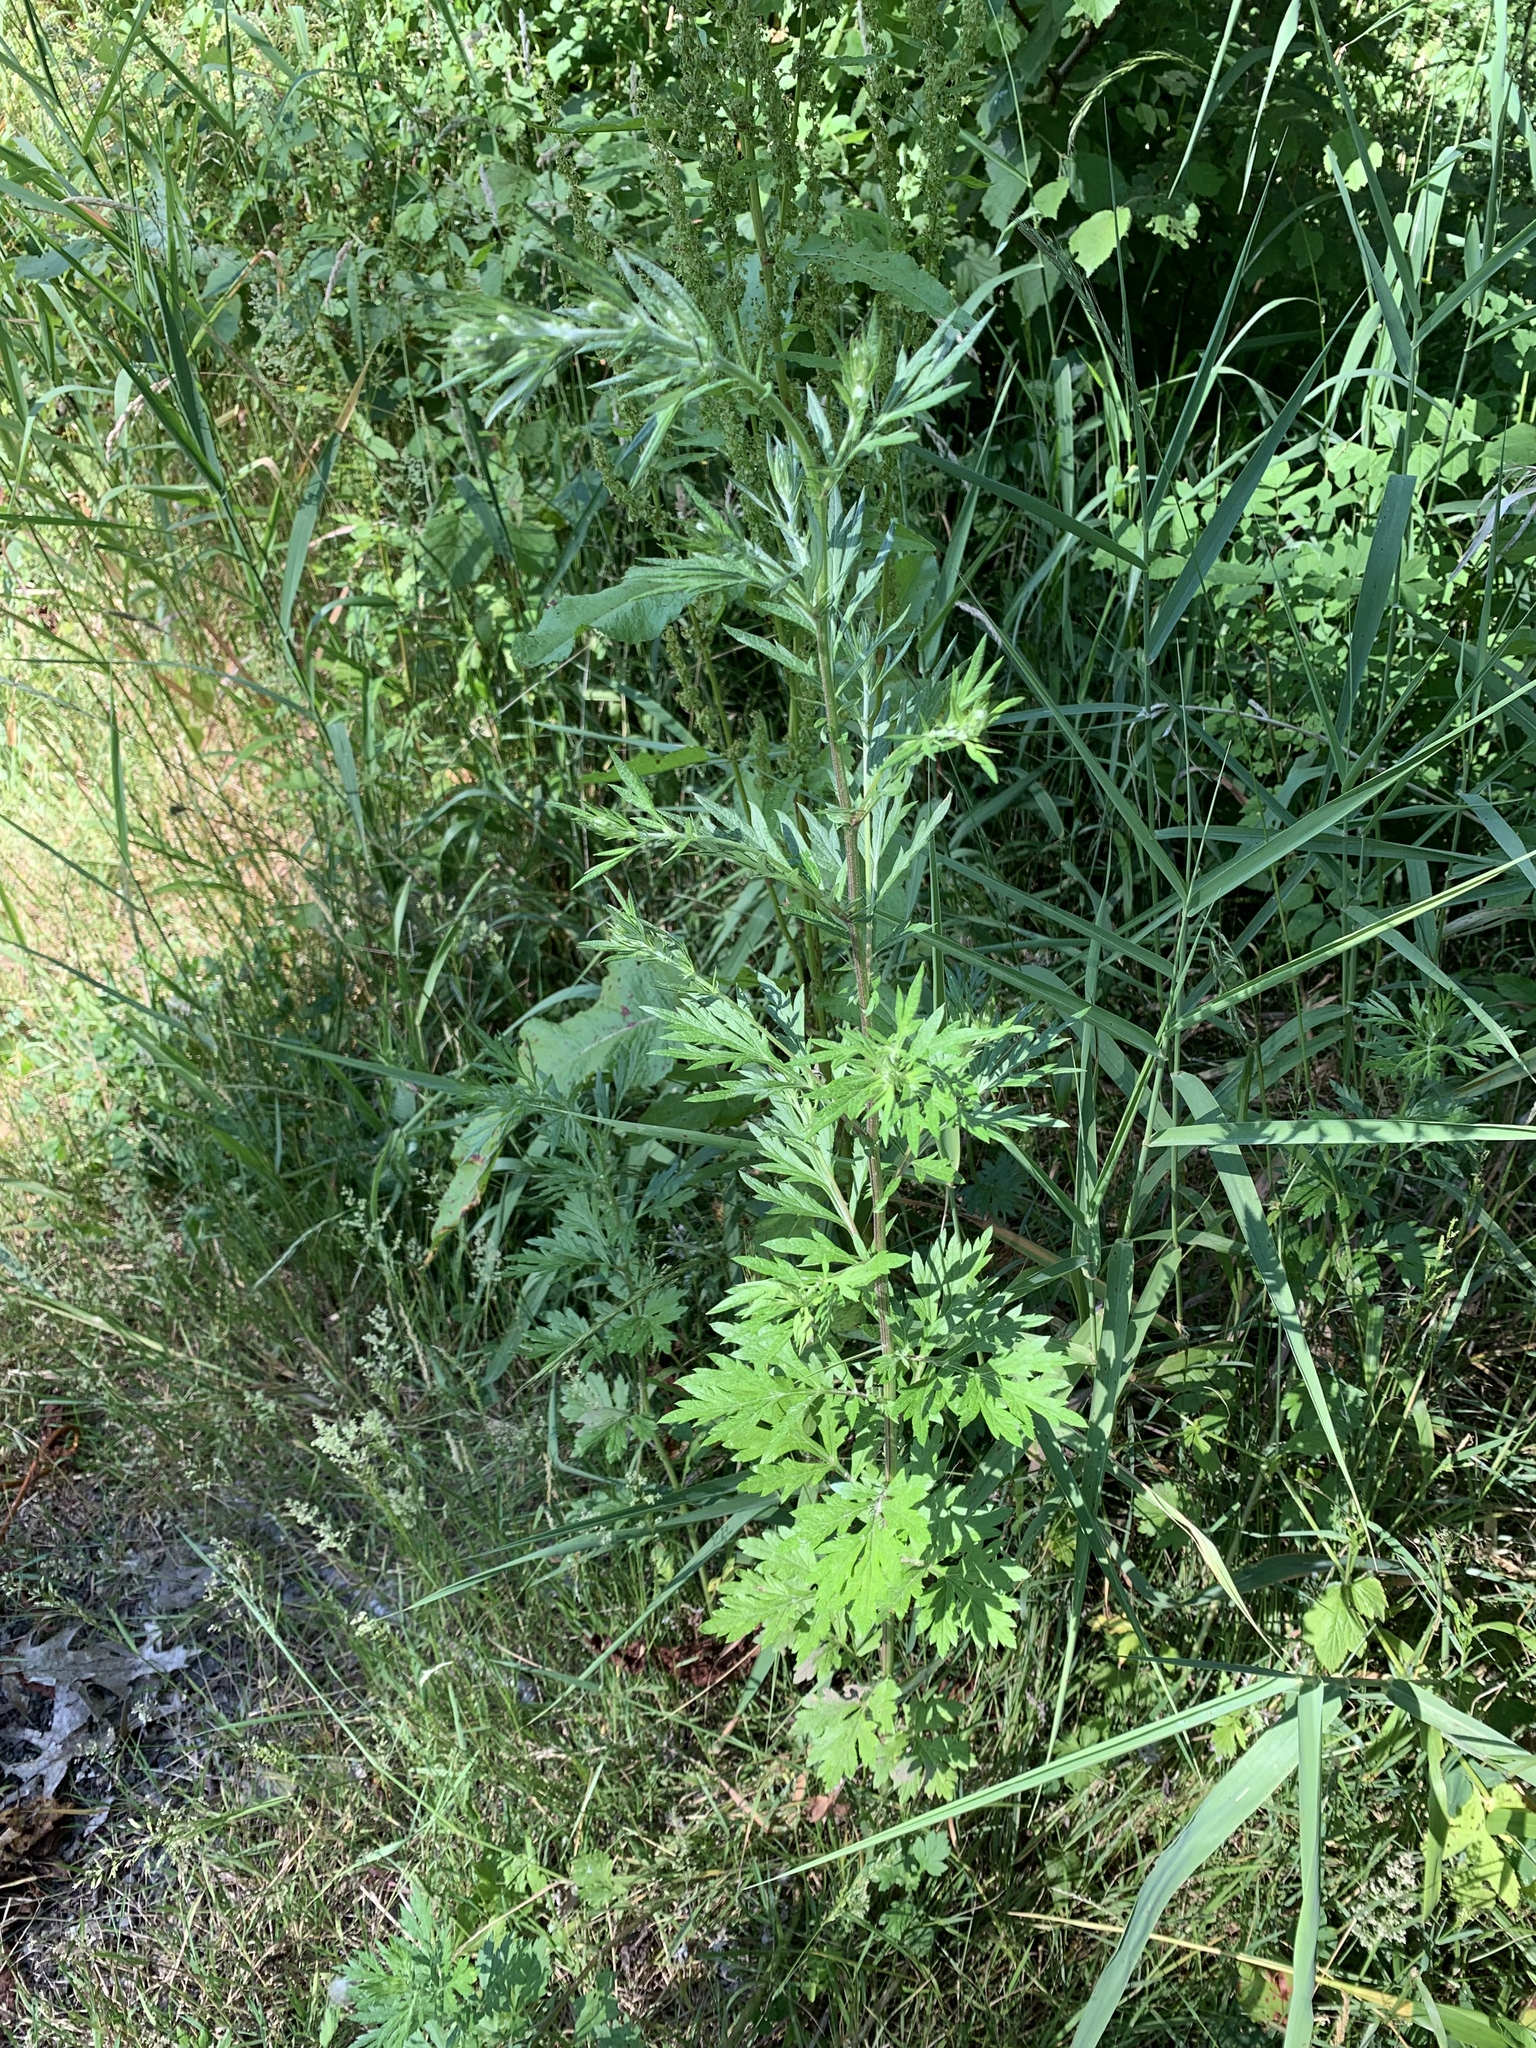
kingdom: Plantae
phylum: Tracheophyta
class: Magnoliopsida
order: Asterales
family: Asteraceae
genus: Artemisia
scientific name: Artemisia vulgaris
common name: Mugwort
